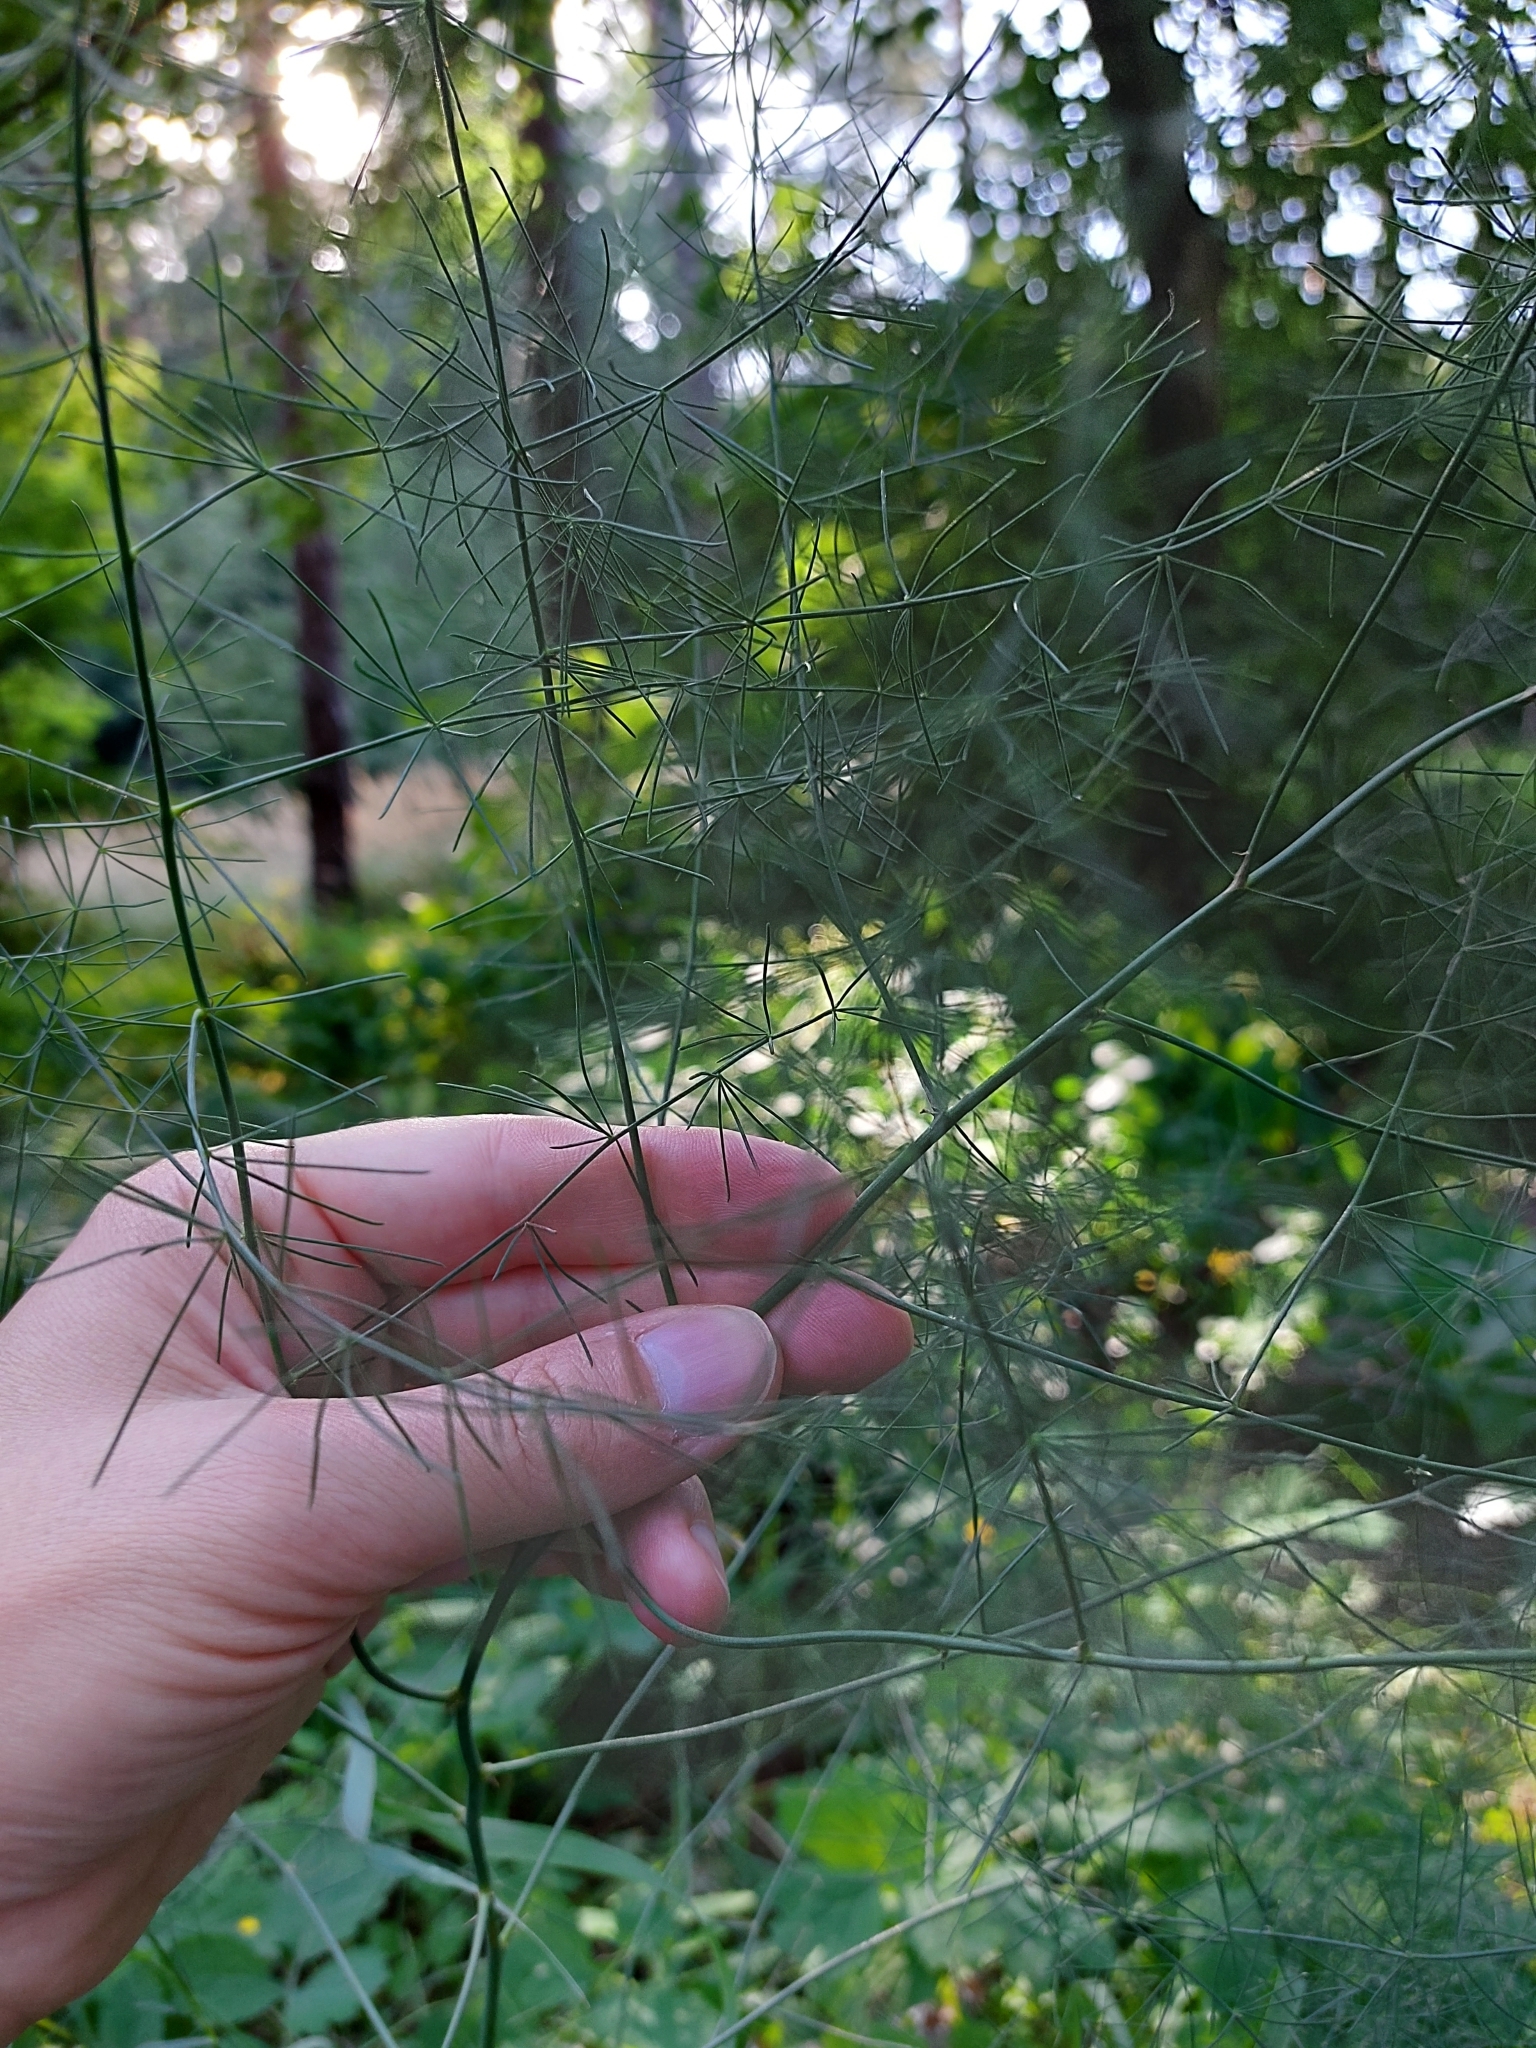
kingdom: Plantae
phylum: Tracheophyta
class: Liliopsida
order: Asparagales
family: Asparagaceae
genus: Asparagus
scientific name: Asparagus officinalis
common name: Garden asparagus
